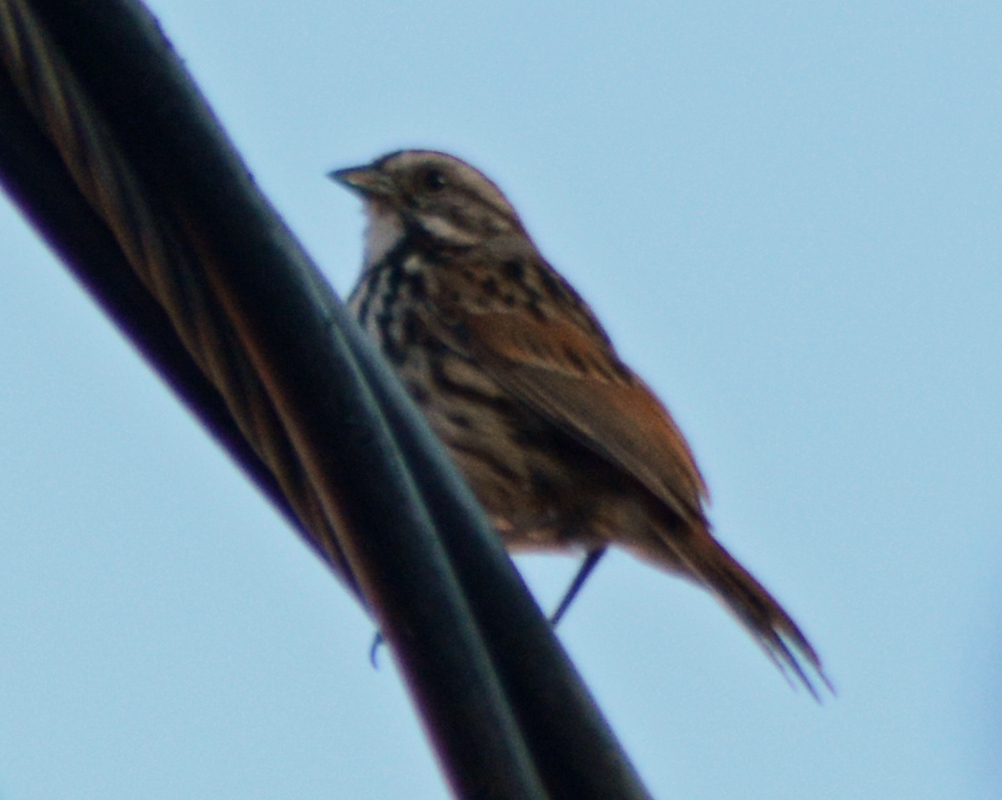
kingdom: Animalia
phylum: Chordata
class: Aves
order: Passeriformes
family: Passerellidae
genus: Melospiza
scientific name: Melospiza melodia
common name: Song sparrow
